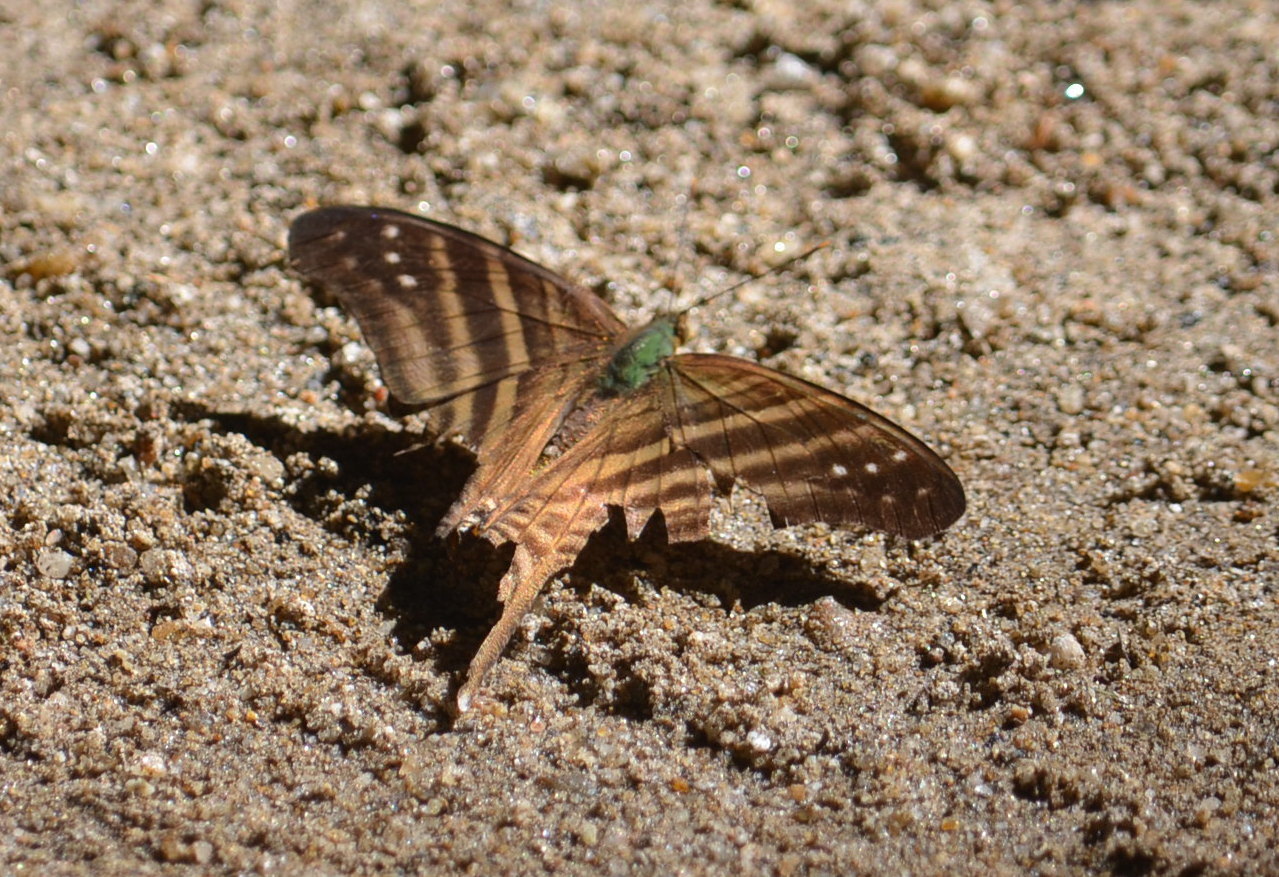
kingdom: Animalia
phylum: Arthropoda
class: Insecta
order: Lepidoptera
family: Nymphalidae
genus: Marpesia
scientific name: Marpesia chiron
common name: Many-banded daggerwing
